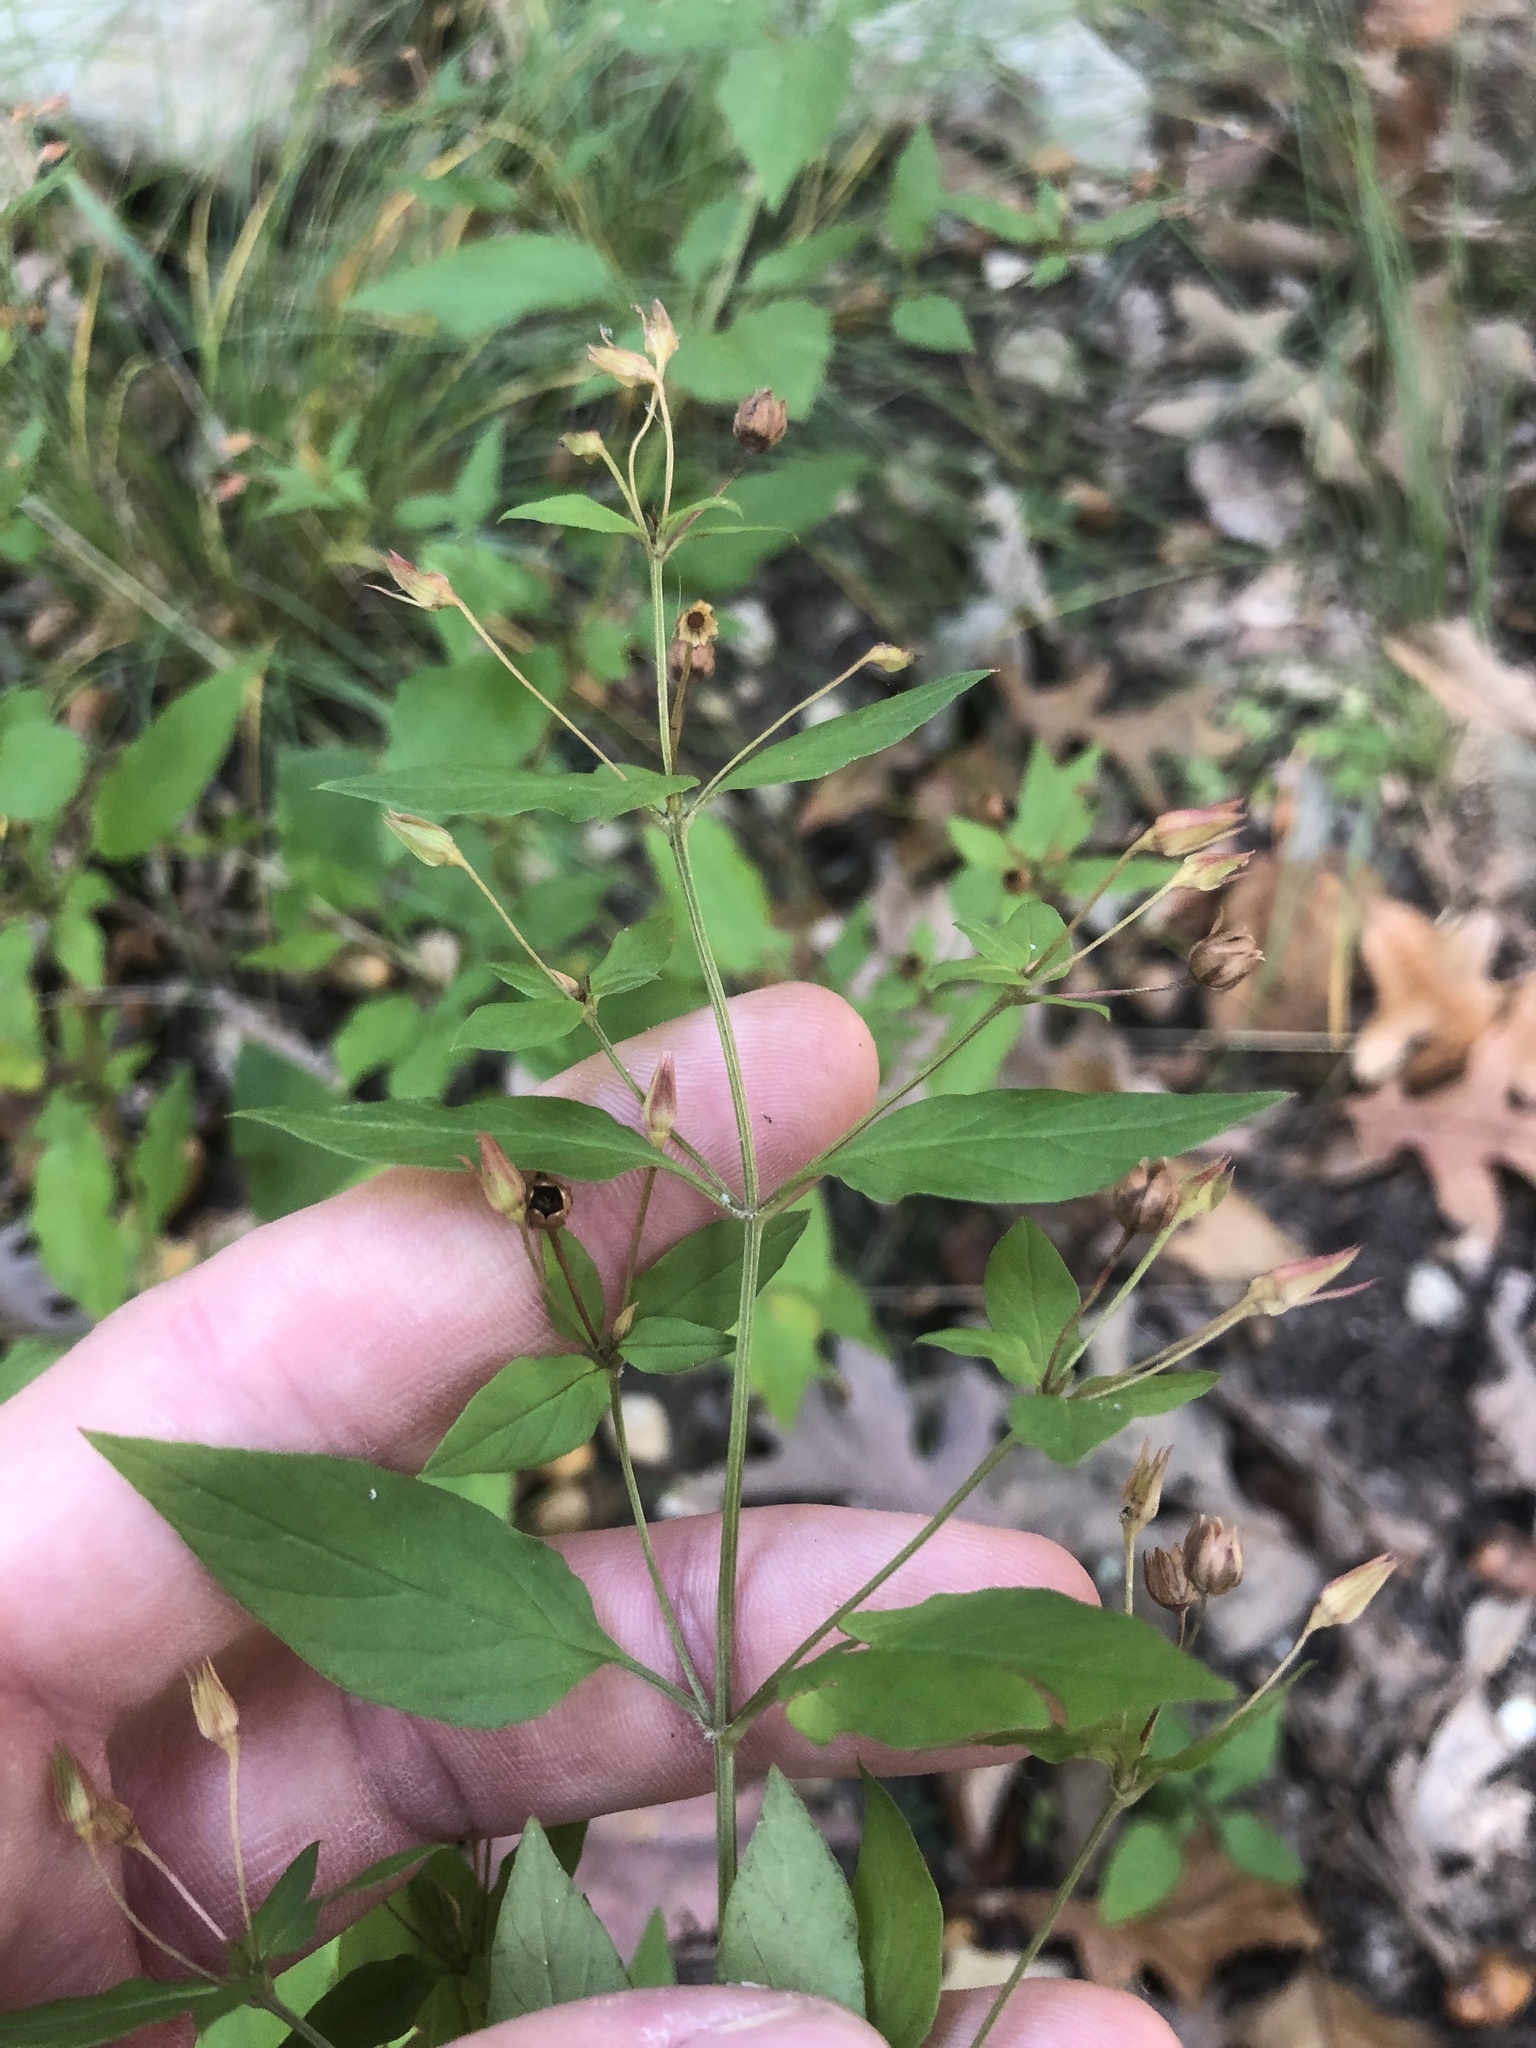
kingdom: Plantae
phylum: Tracheophyta
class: Magnoliopsida
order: Ericales
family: Primulaceae
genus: Lysimachia
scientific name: Lysimachia tonsa
